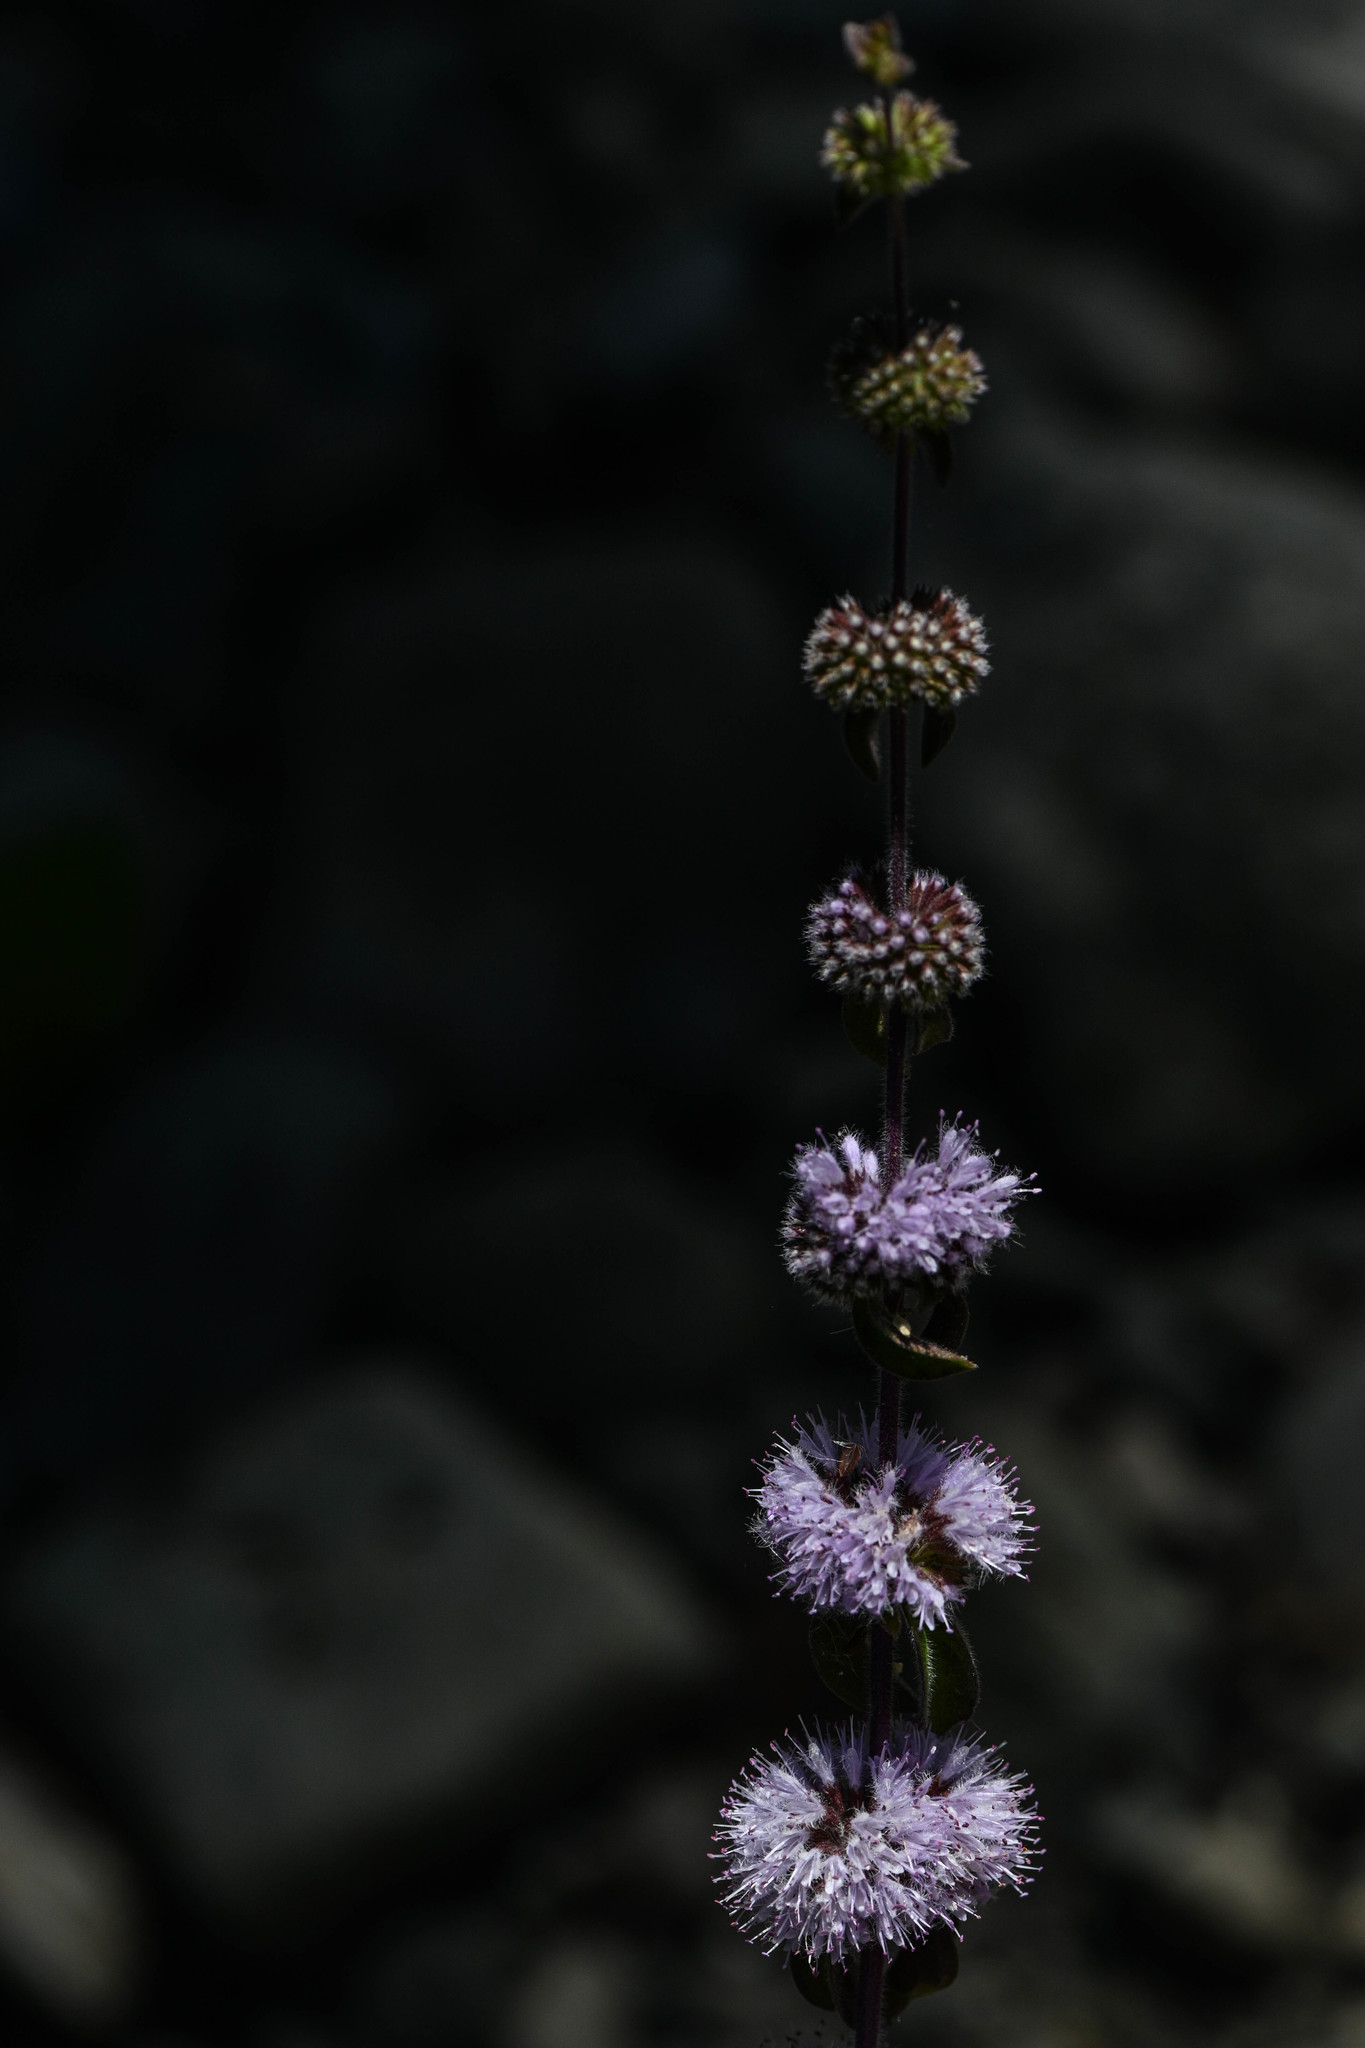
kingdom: Plantae
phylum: Tracheophyta
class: Magnoliopsida
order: Lamiales
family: Lamiaceae
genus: Mentha
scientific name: Mentha pulegium
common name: Pennyroyal
